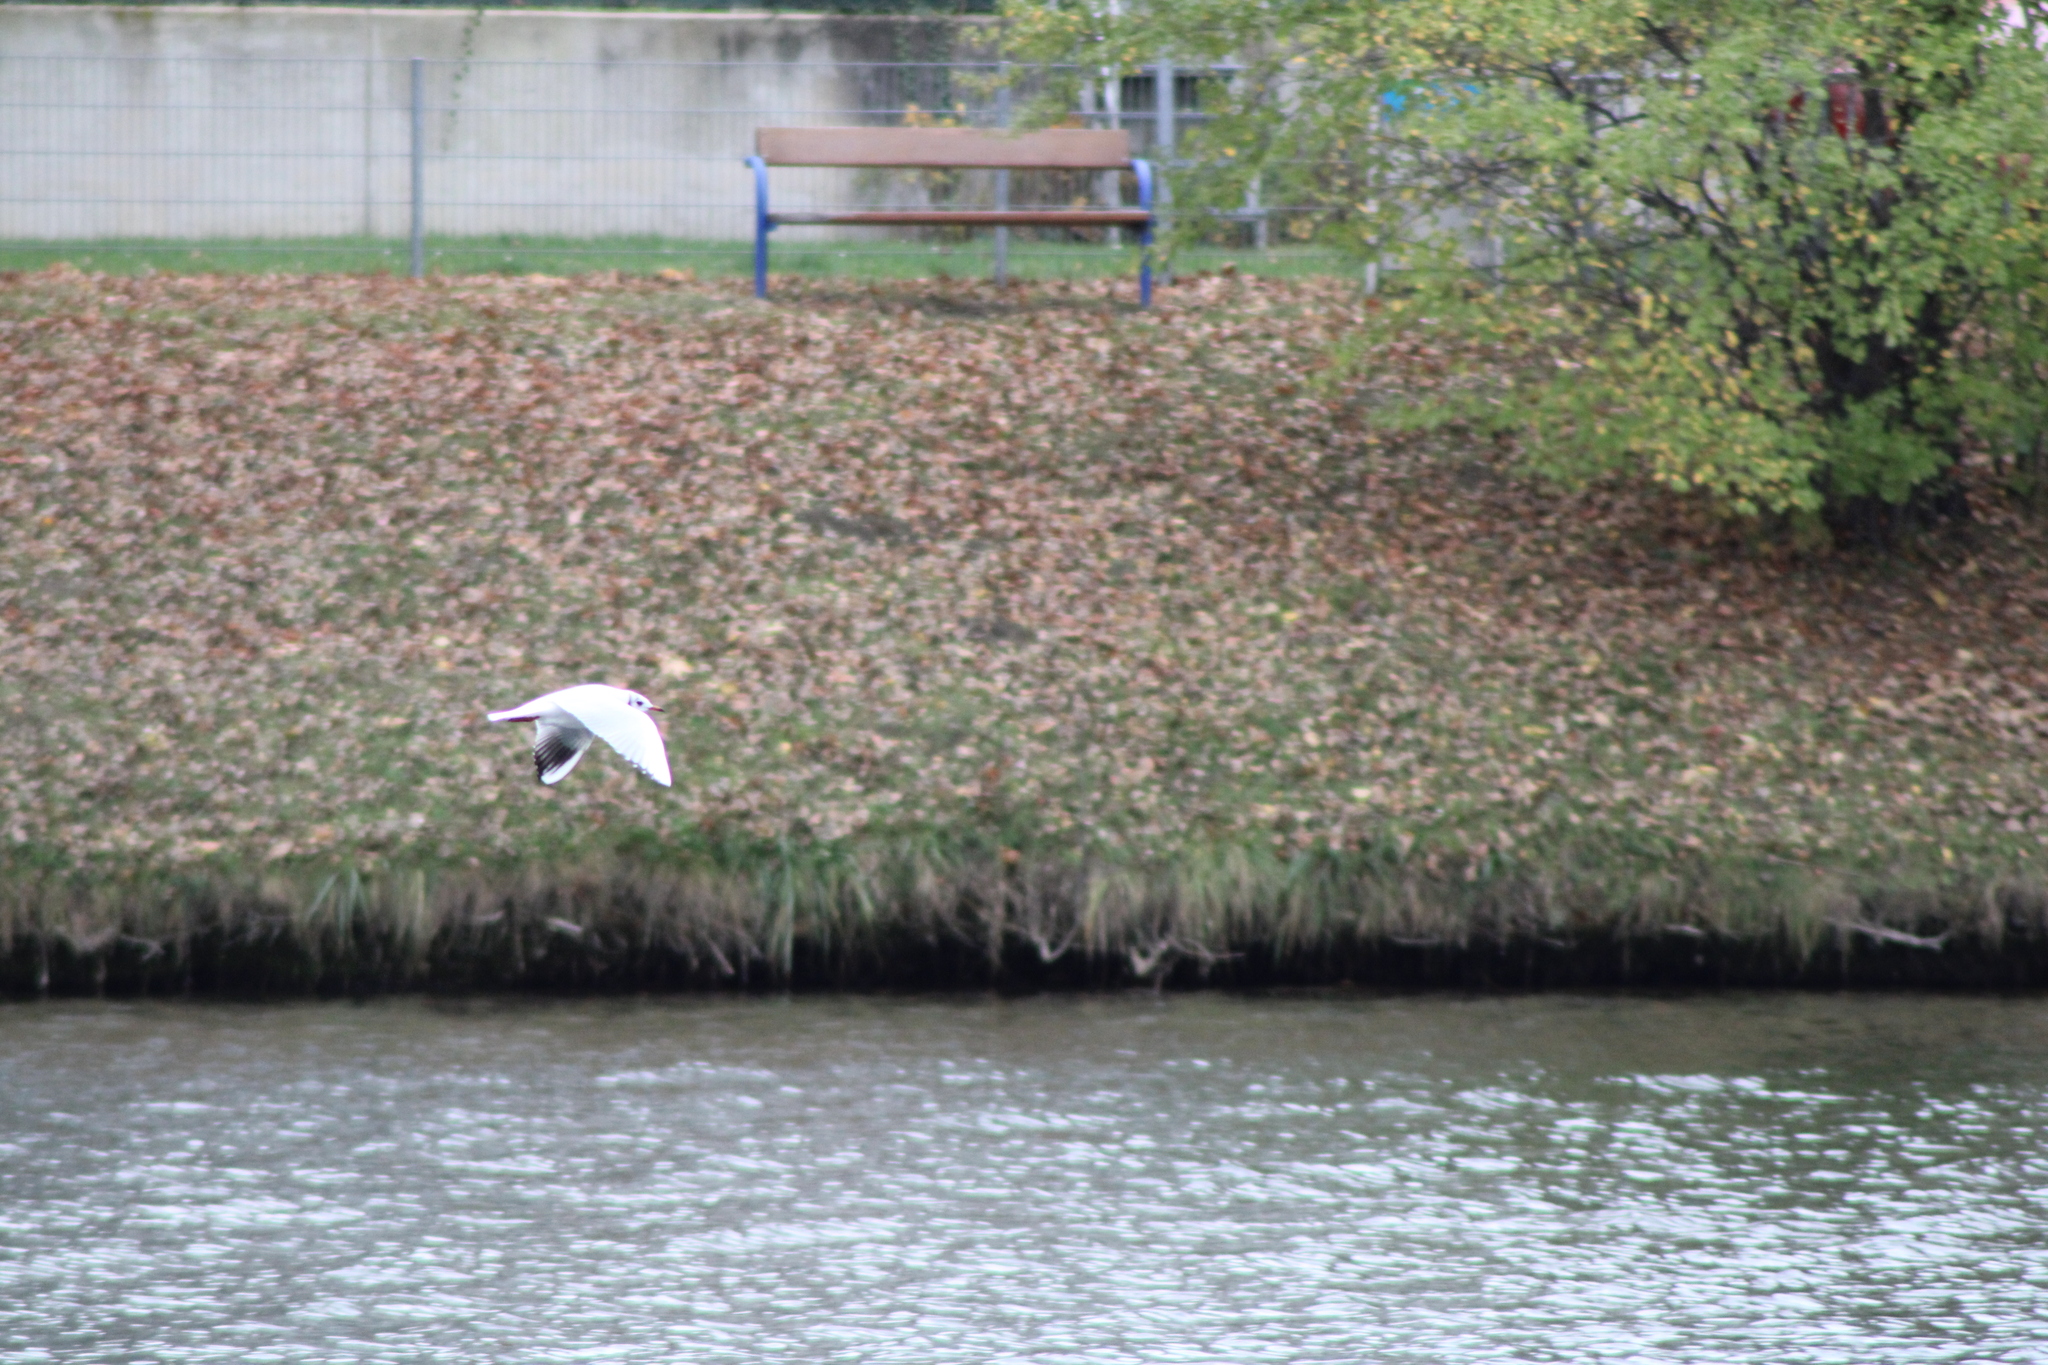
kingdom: Animalia
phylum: Chordata
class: Aves
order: Charadriiformes
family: Laridae
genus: Chroicocephalus
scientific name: Chroicocephalus ridibundus
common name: Black-headed gull
